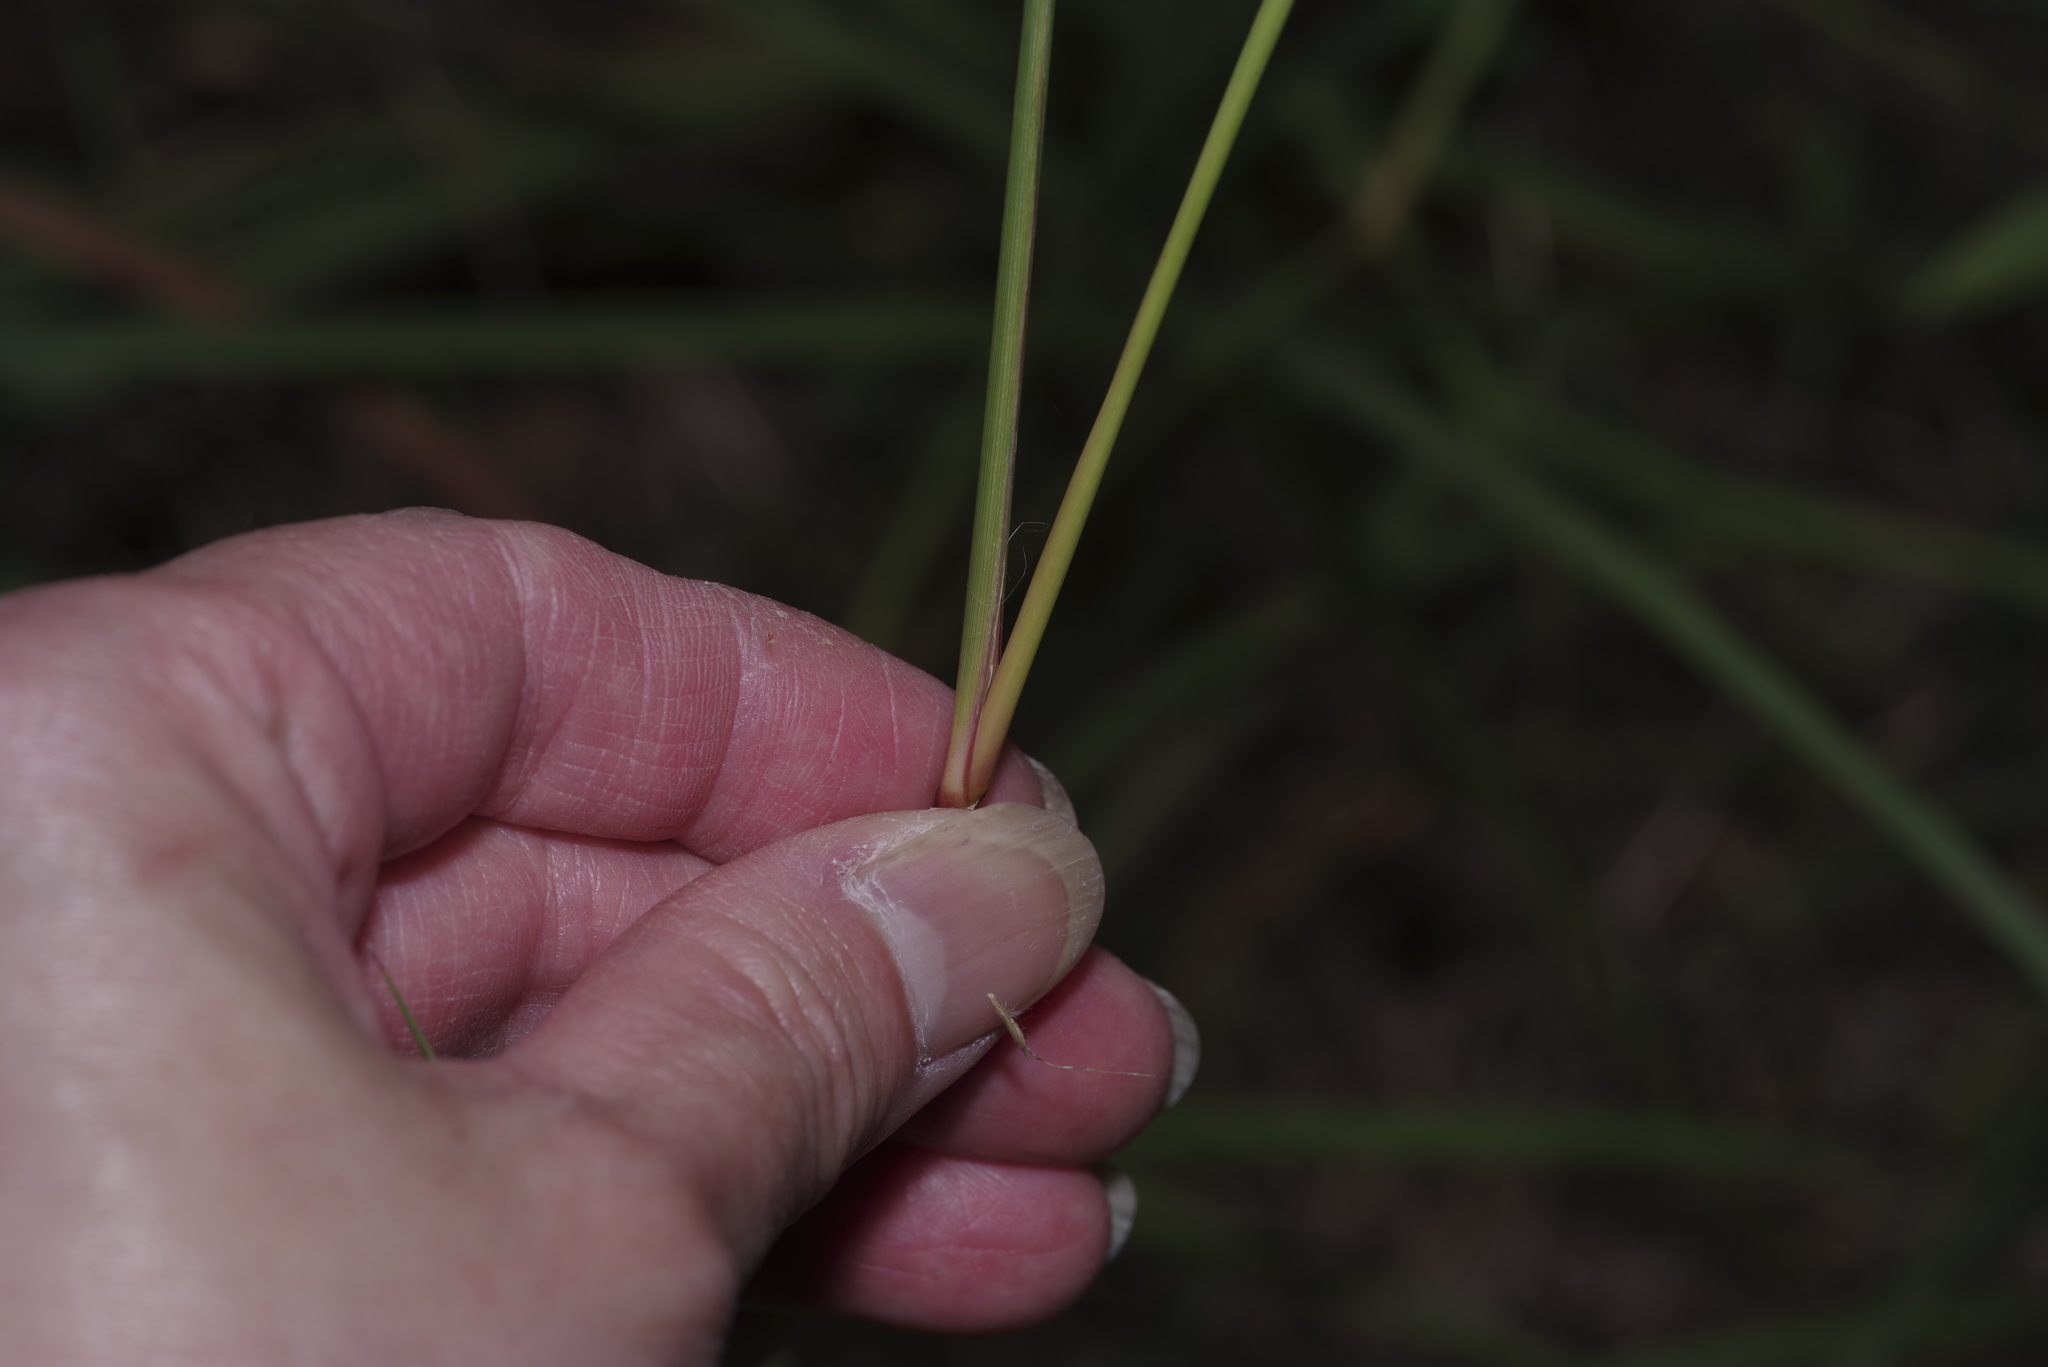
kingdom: Plantae
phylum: Tracheophyta
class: Liliopsida
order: Poales
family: Poaceae
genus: Eragrostis
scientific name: Eragrostis superba
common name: Wilman lovegrass
